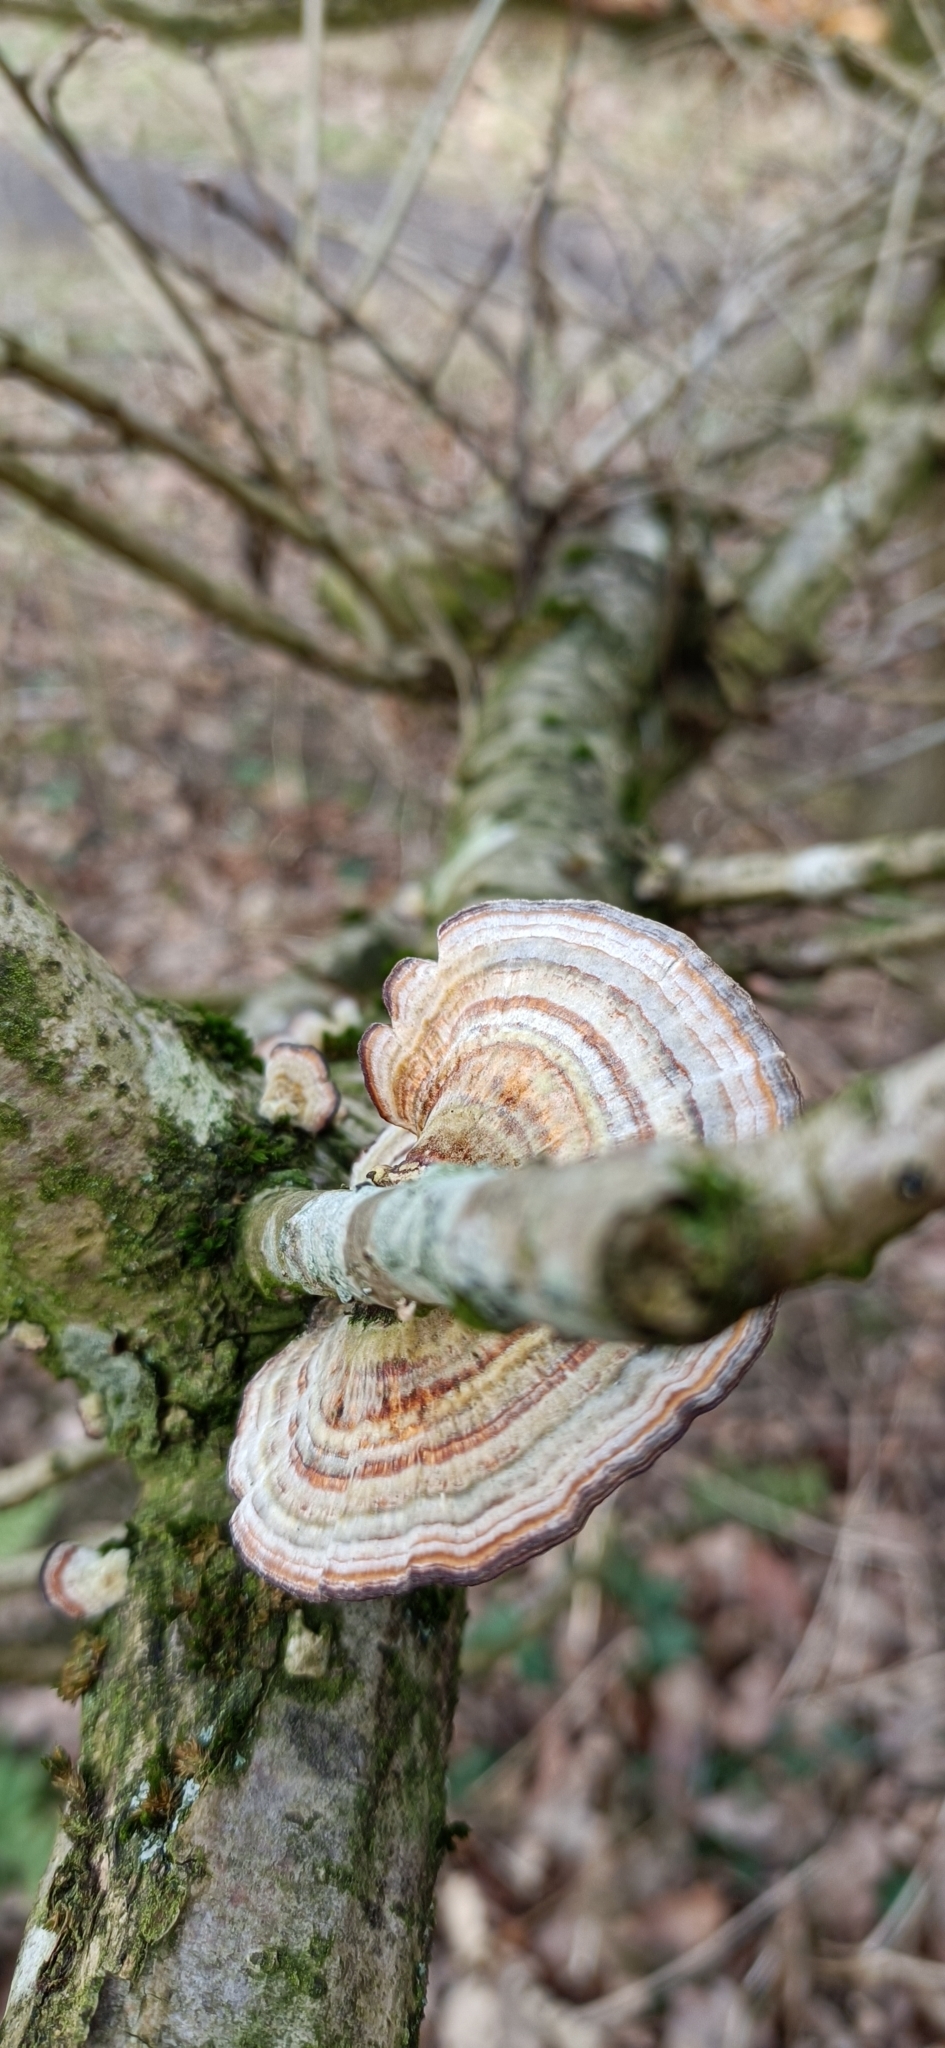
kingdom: Fungi
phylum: Basidiomycota
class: Agaricomycetes
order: Polyporales
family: Polyporaceae
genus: Trametes
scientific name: Trametes versicolor
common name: Turkeytail
